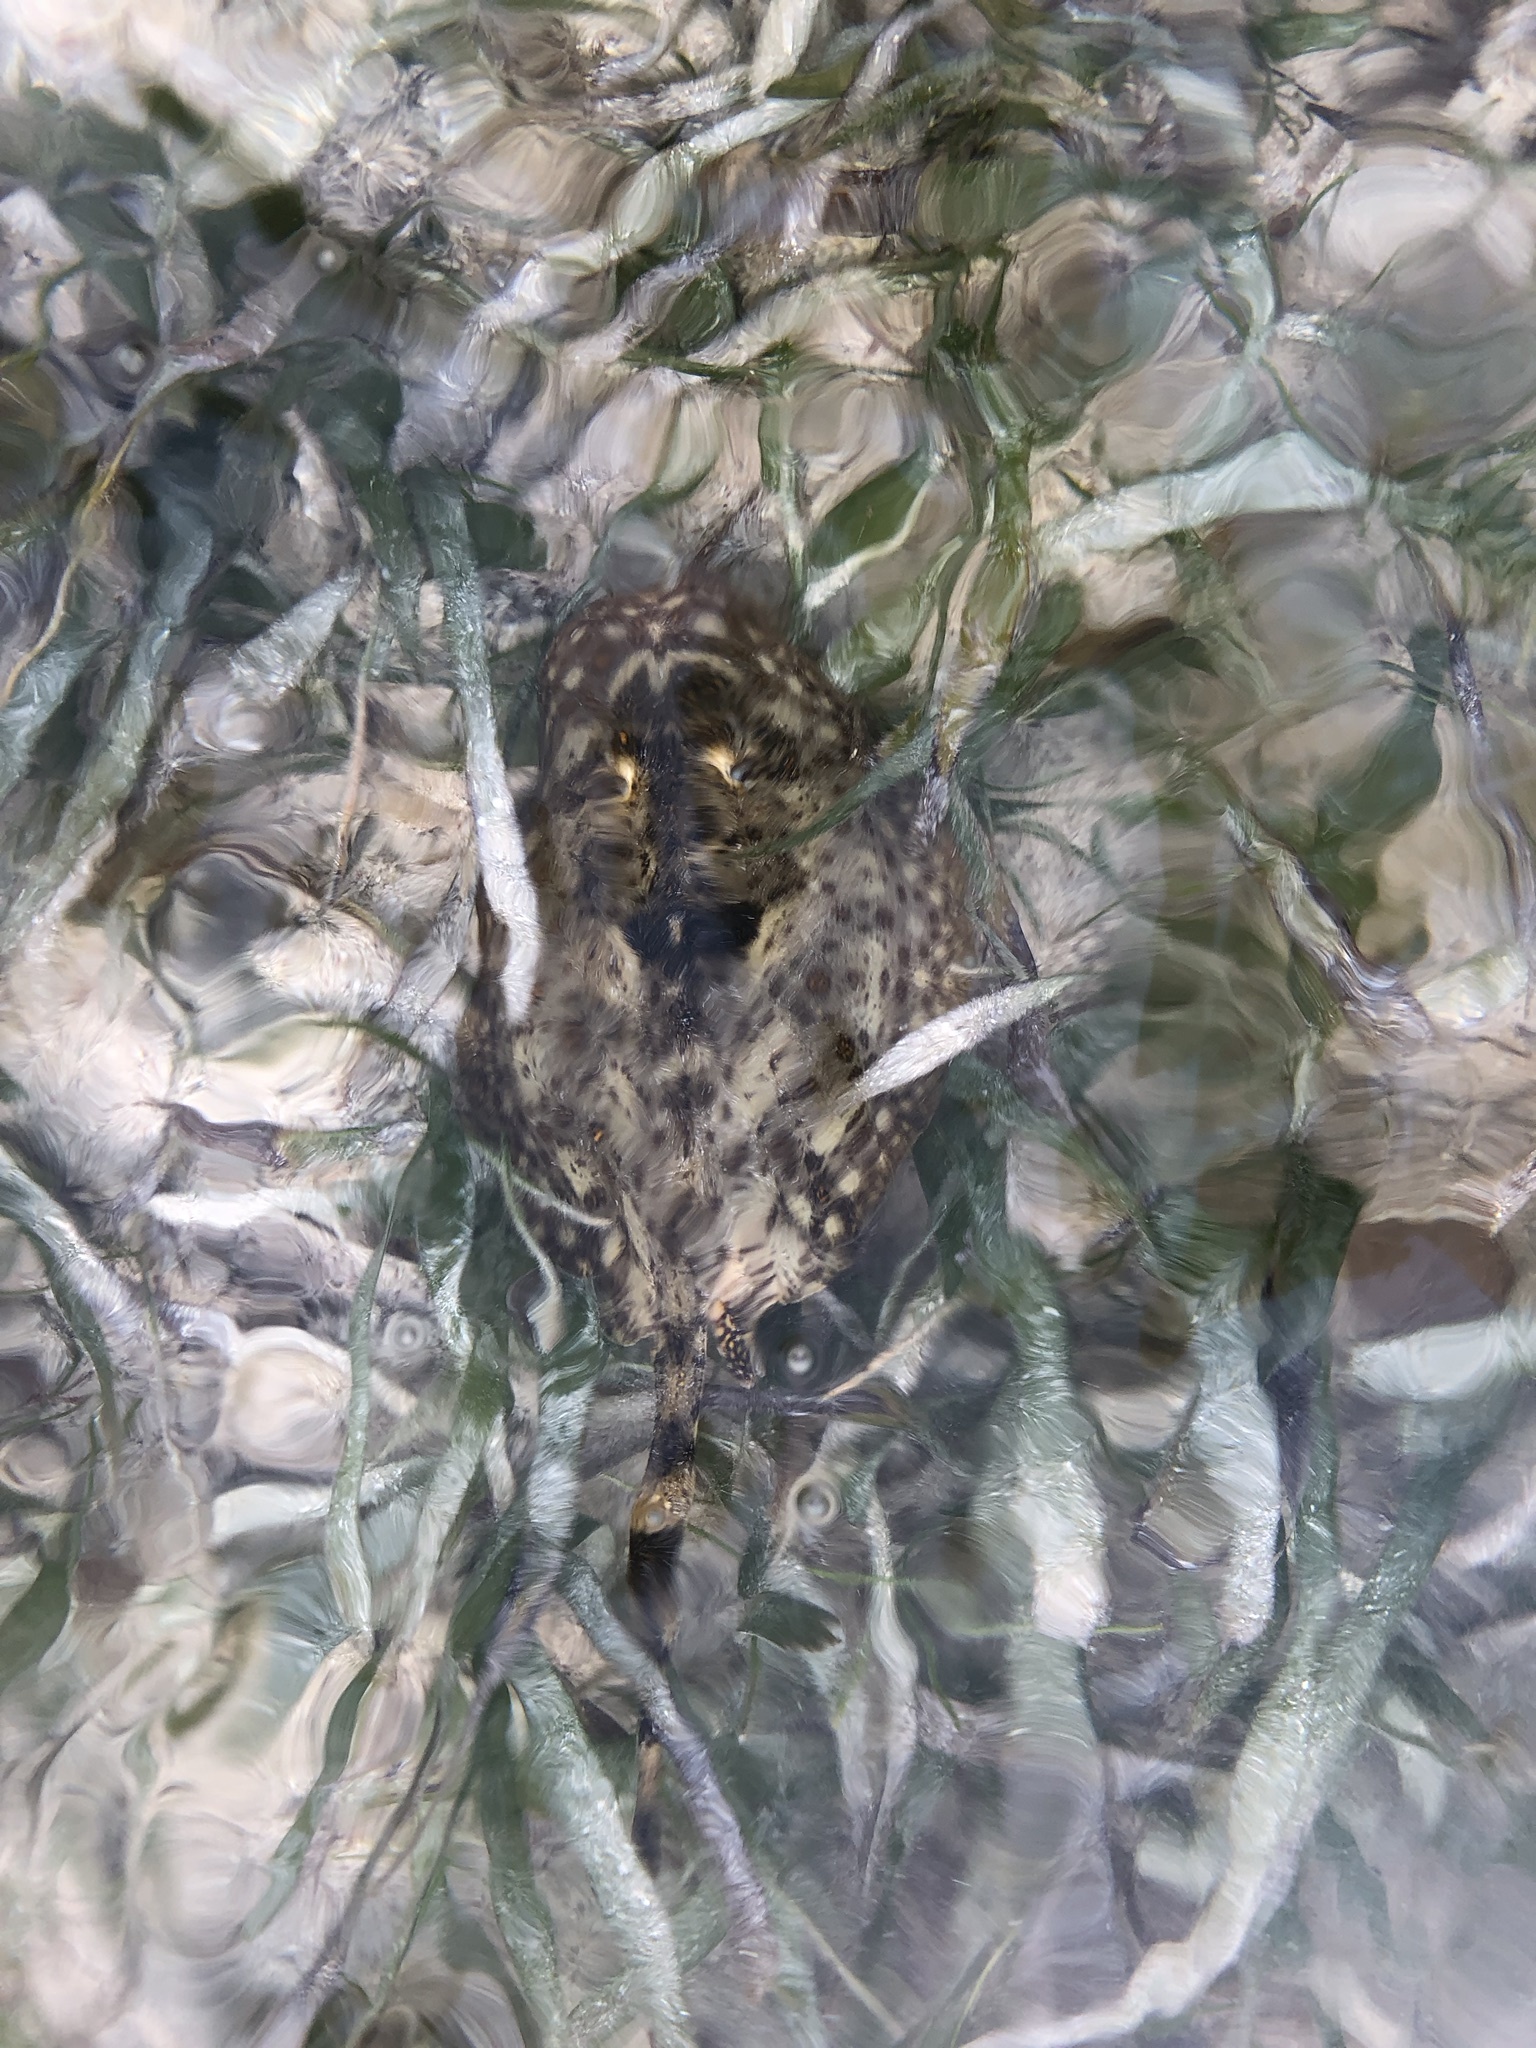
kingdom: Animalia
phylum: Chordata
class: Elasmobranchii
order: Myliobatiformes
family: Urotrygonidae
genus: Urobatis
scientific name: Urobatis jamaicensis
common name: Yellow stingray
